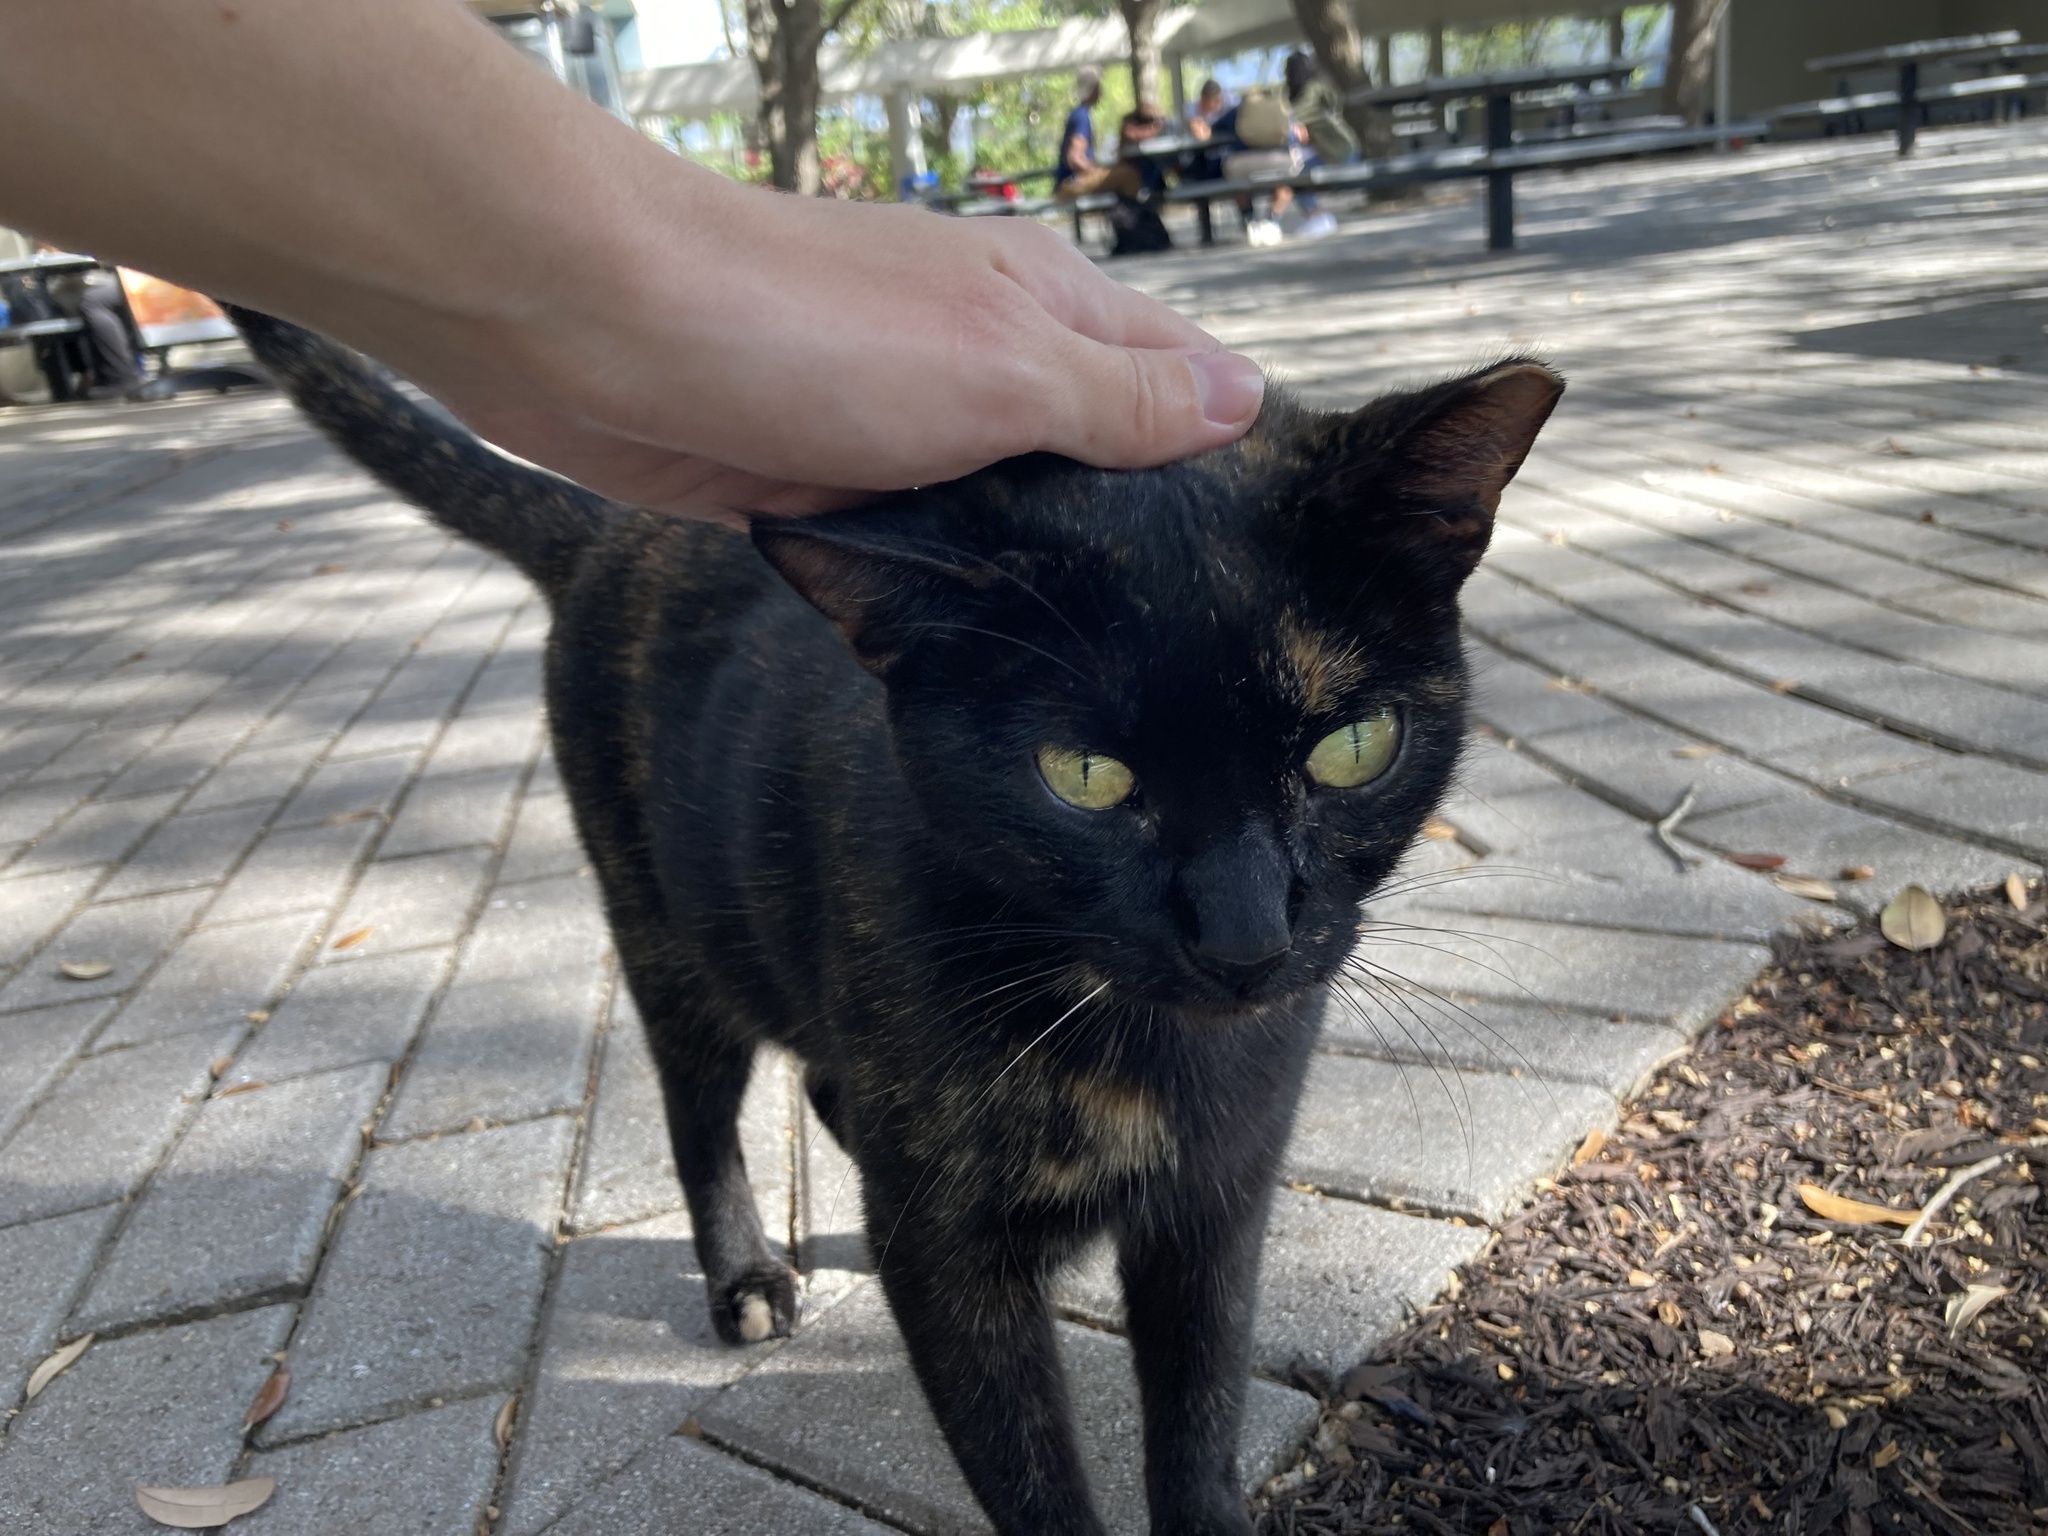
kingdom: Animalia
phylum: Chordata
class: Mammalia
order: Carnivora
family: Felidae
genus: Felis
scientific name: Felis catus
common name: Domestic cat
